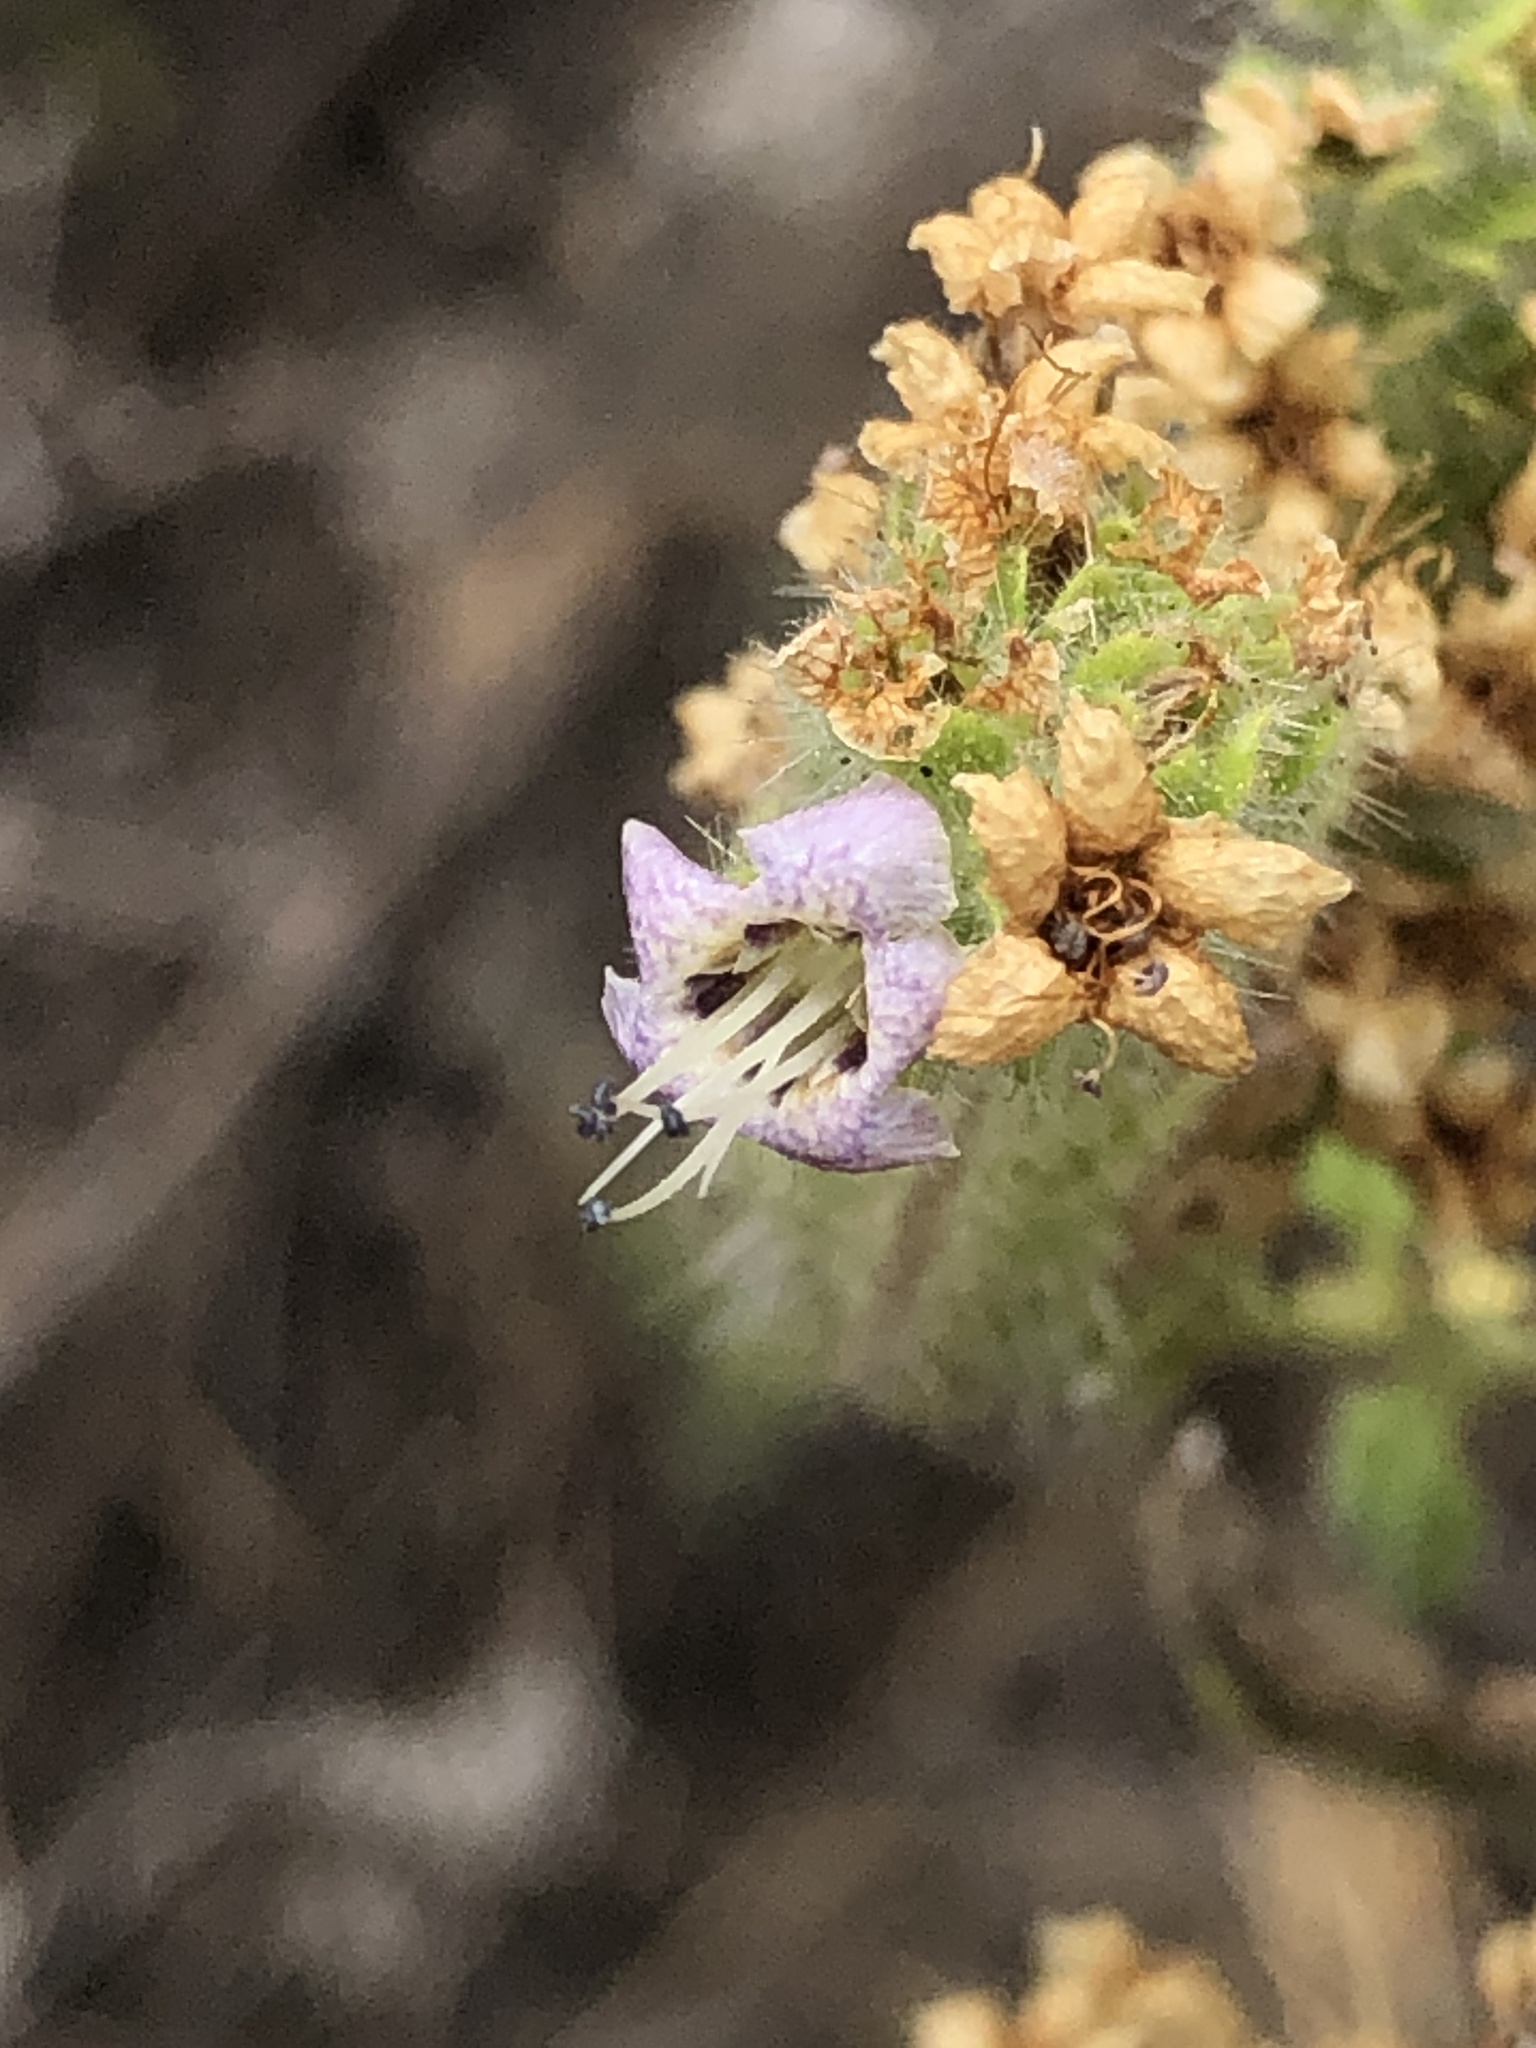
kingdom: Plantae
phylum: Tracheophyta
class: Magnoliopsida
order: Boraginales
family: Hydrophyllaceae
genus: Phacelia
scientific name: Phacelia ramosissima
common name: Branching phacelia
